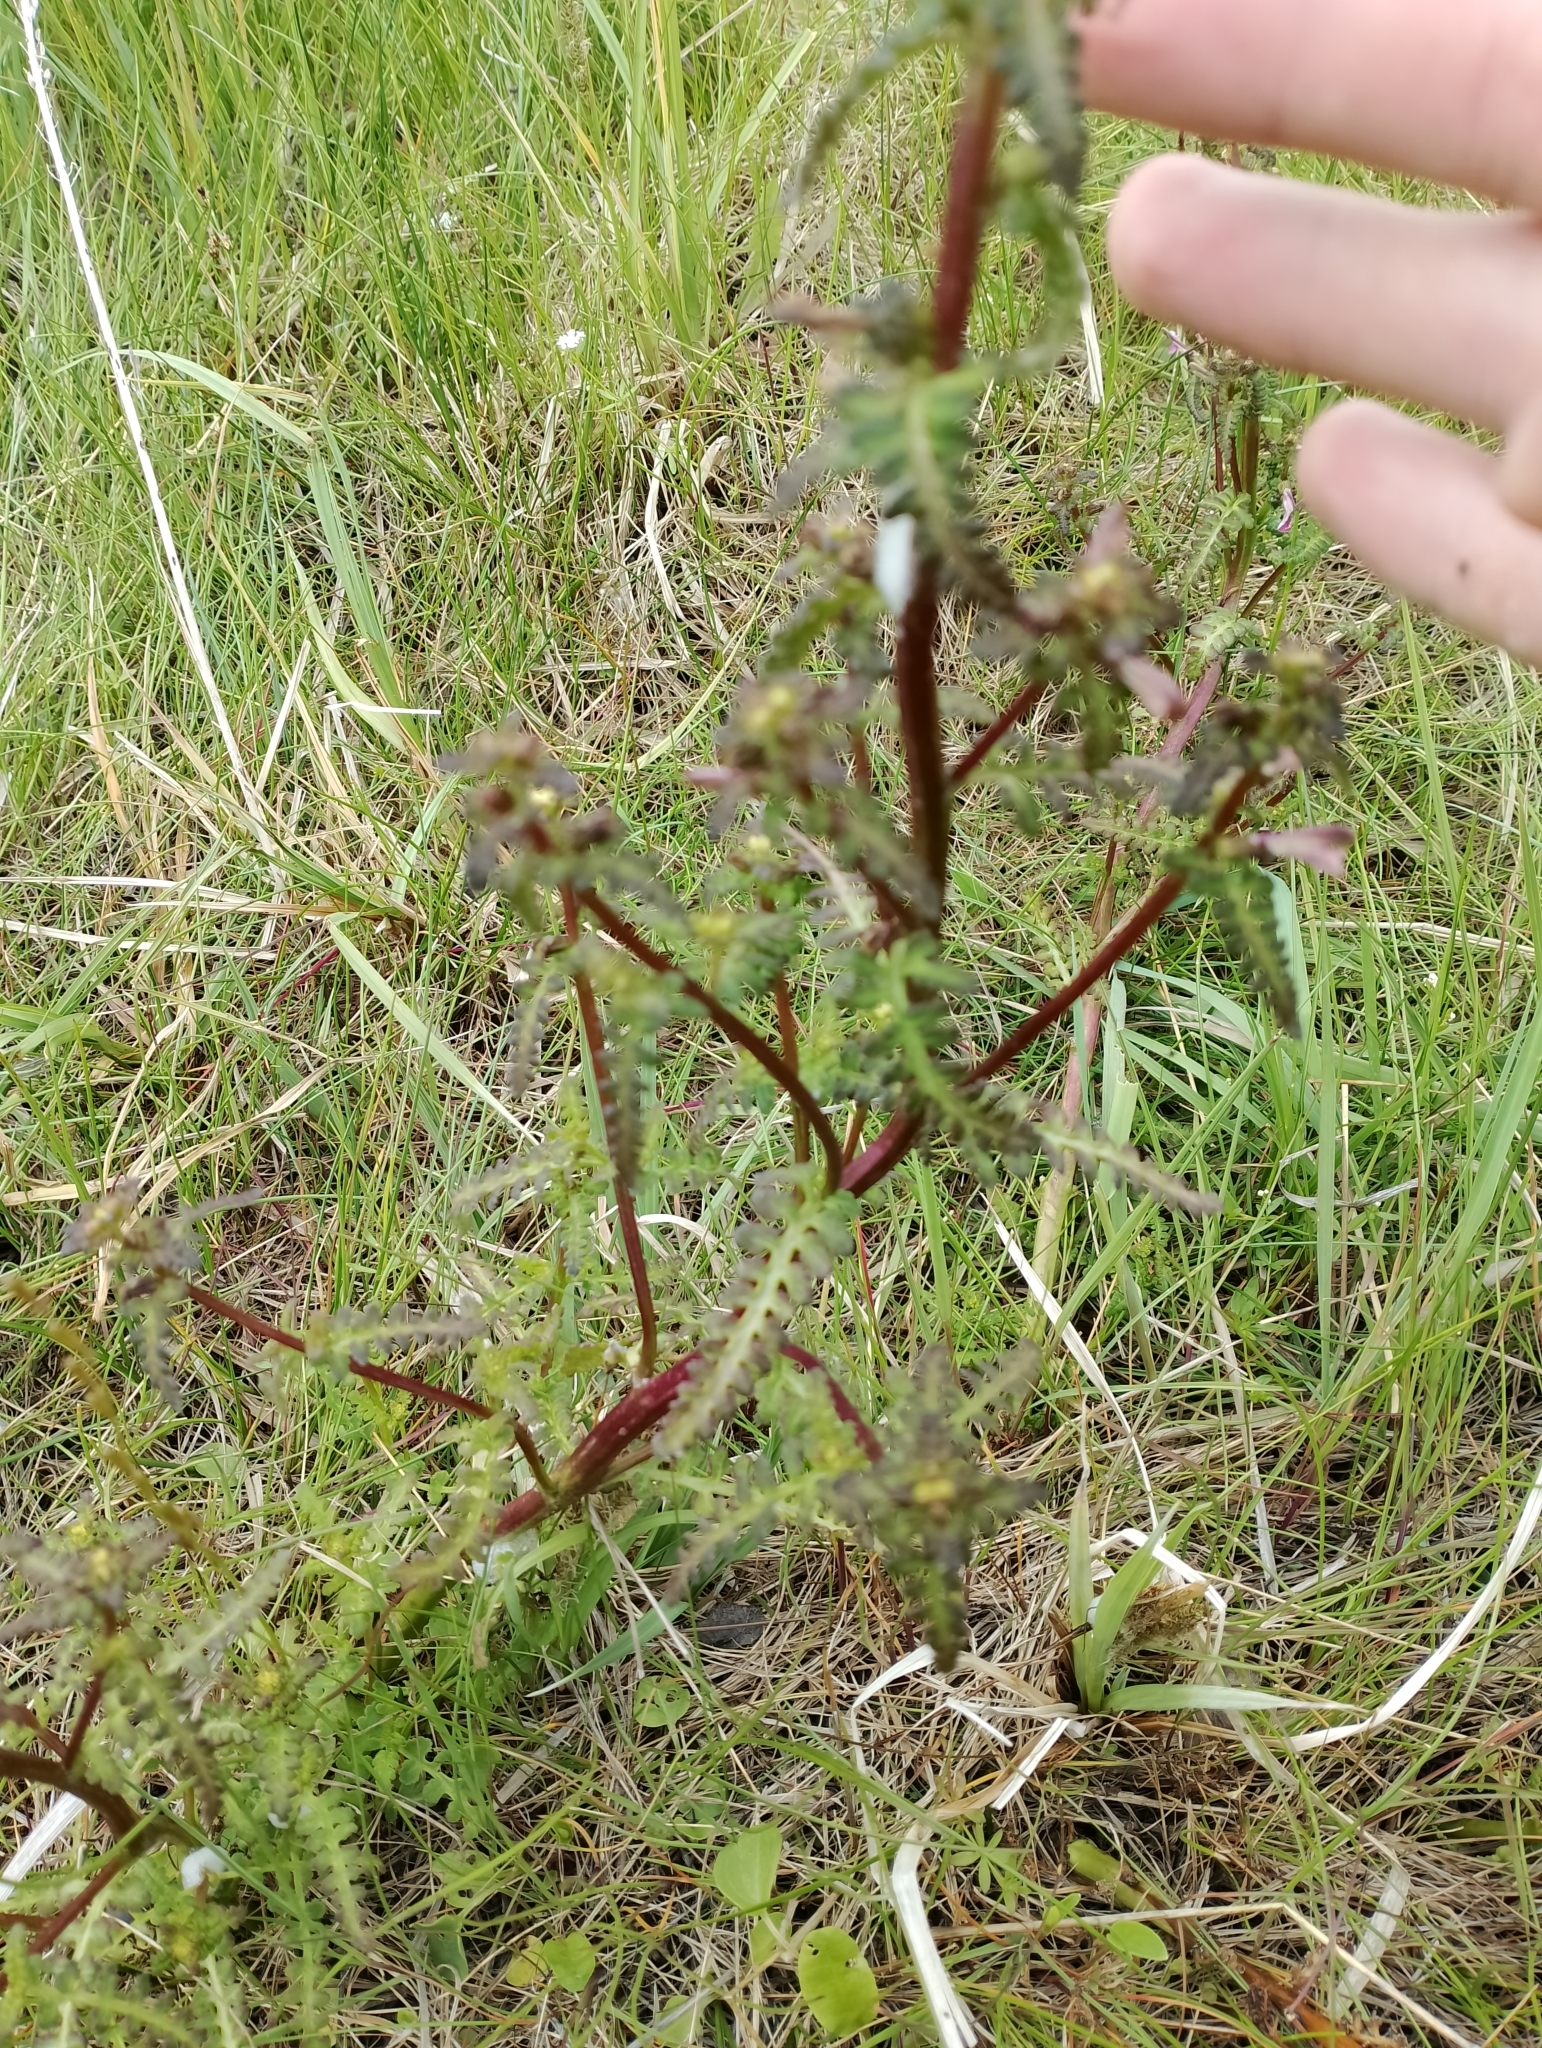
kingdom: Plantae
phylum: Tracheophyta
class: Magnoliopsida
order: Lamiales
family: Orobanchaceae
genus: Pedicularis
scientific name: Pedicularis palustris
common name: Marsh lousewort
